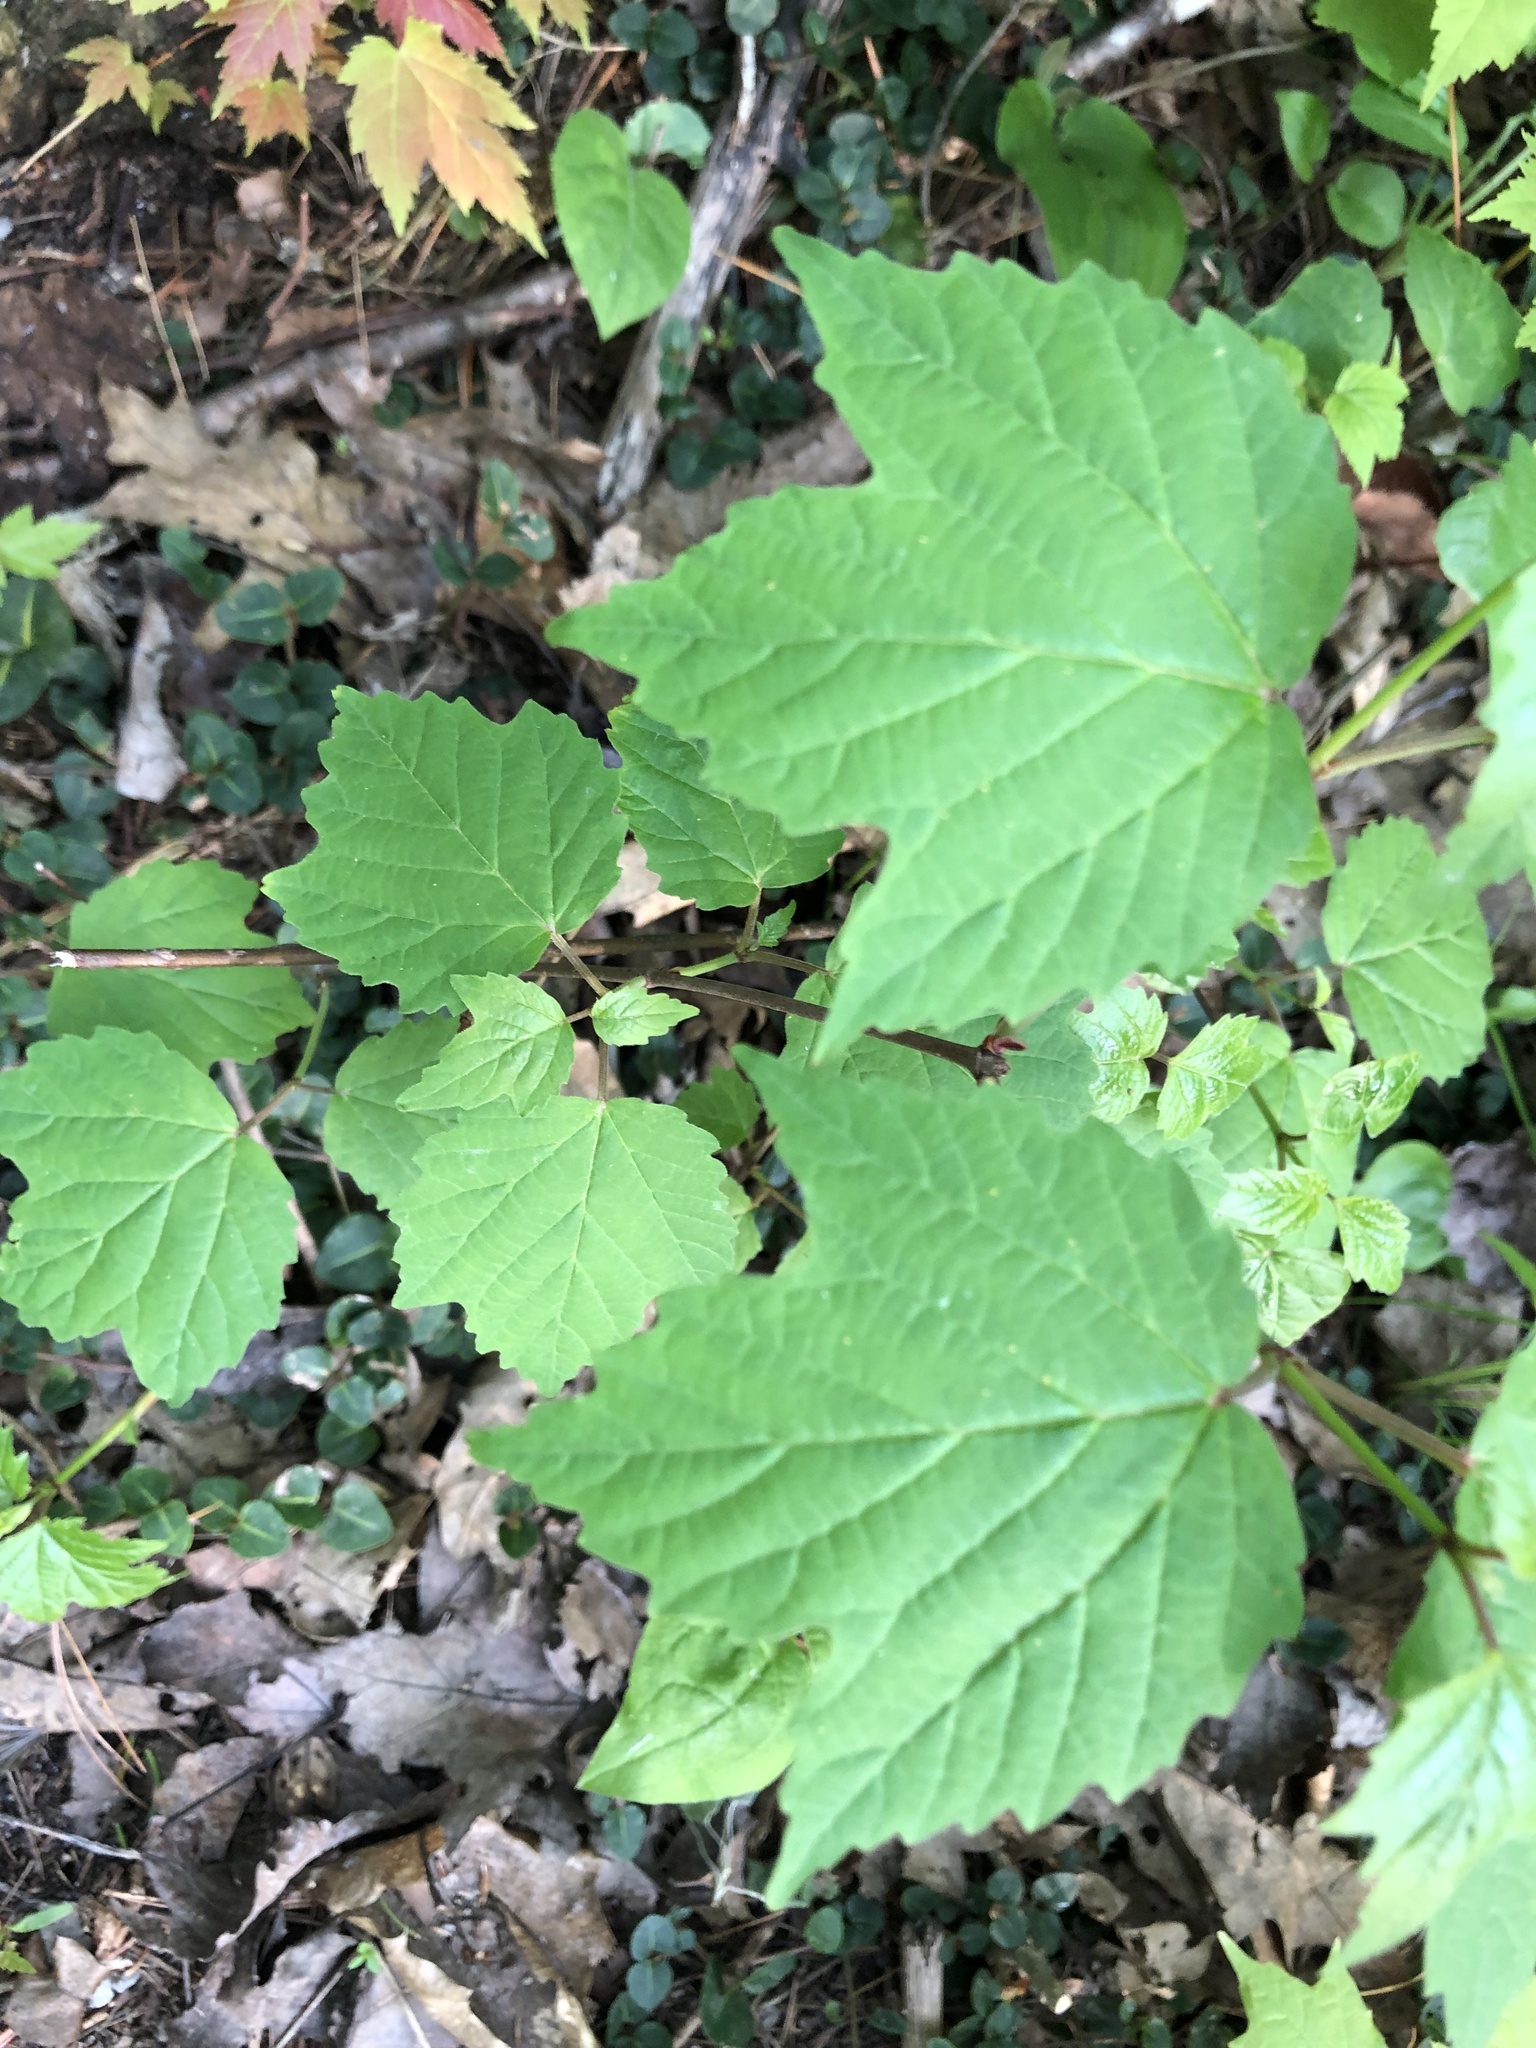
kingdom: Plantae
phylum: Tracheophyta
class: Magnoliopsida
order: Dipsacales
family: Viburnaceae
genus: Viburnum
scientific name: Viburnum acerifolium
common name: Dockmackie
